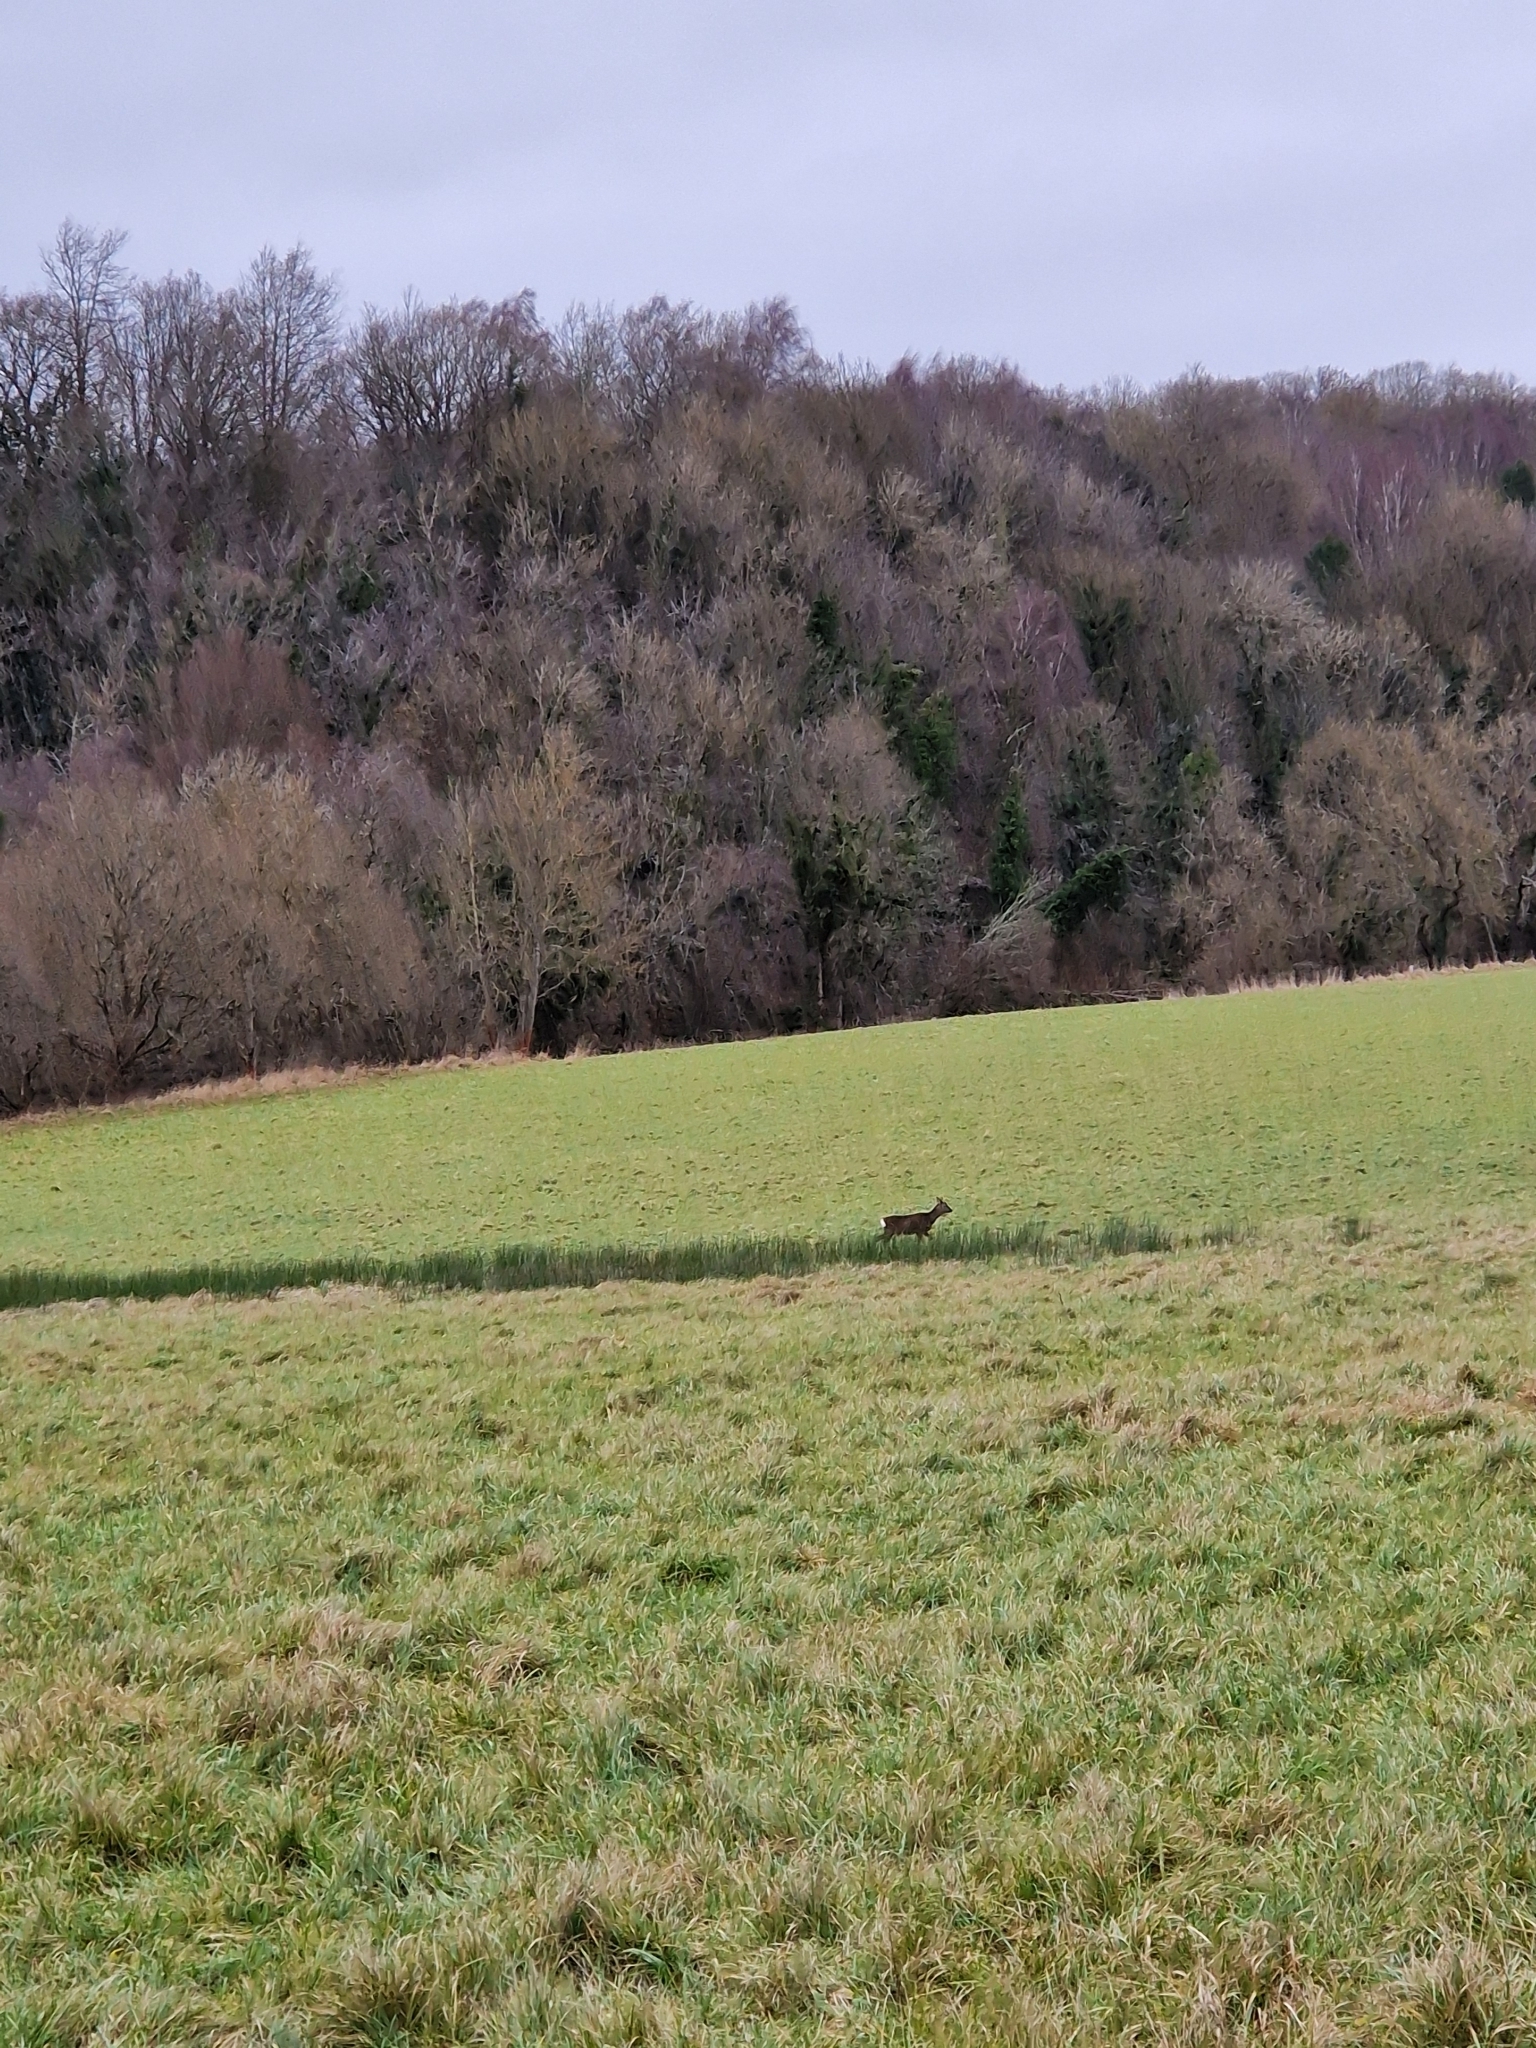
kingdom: Animalia
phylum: Chordata
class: Mammalia
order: Artiodactyla
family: Cervidae
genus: Capreolus
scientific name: Capreolus capreolus
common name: Western roe deer
